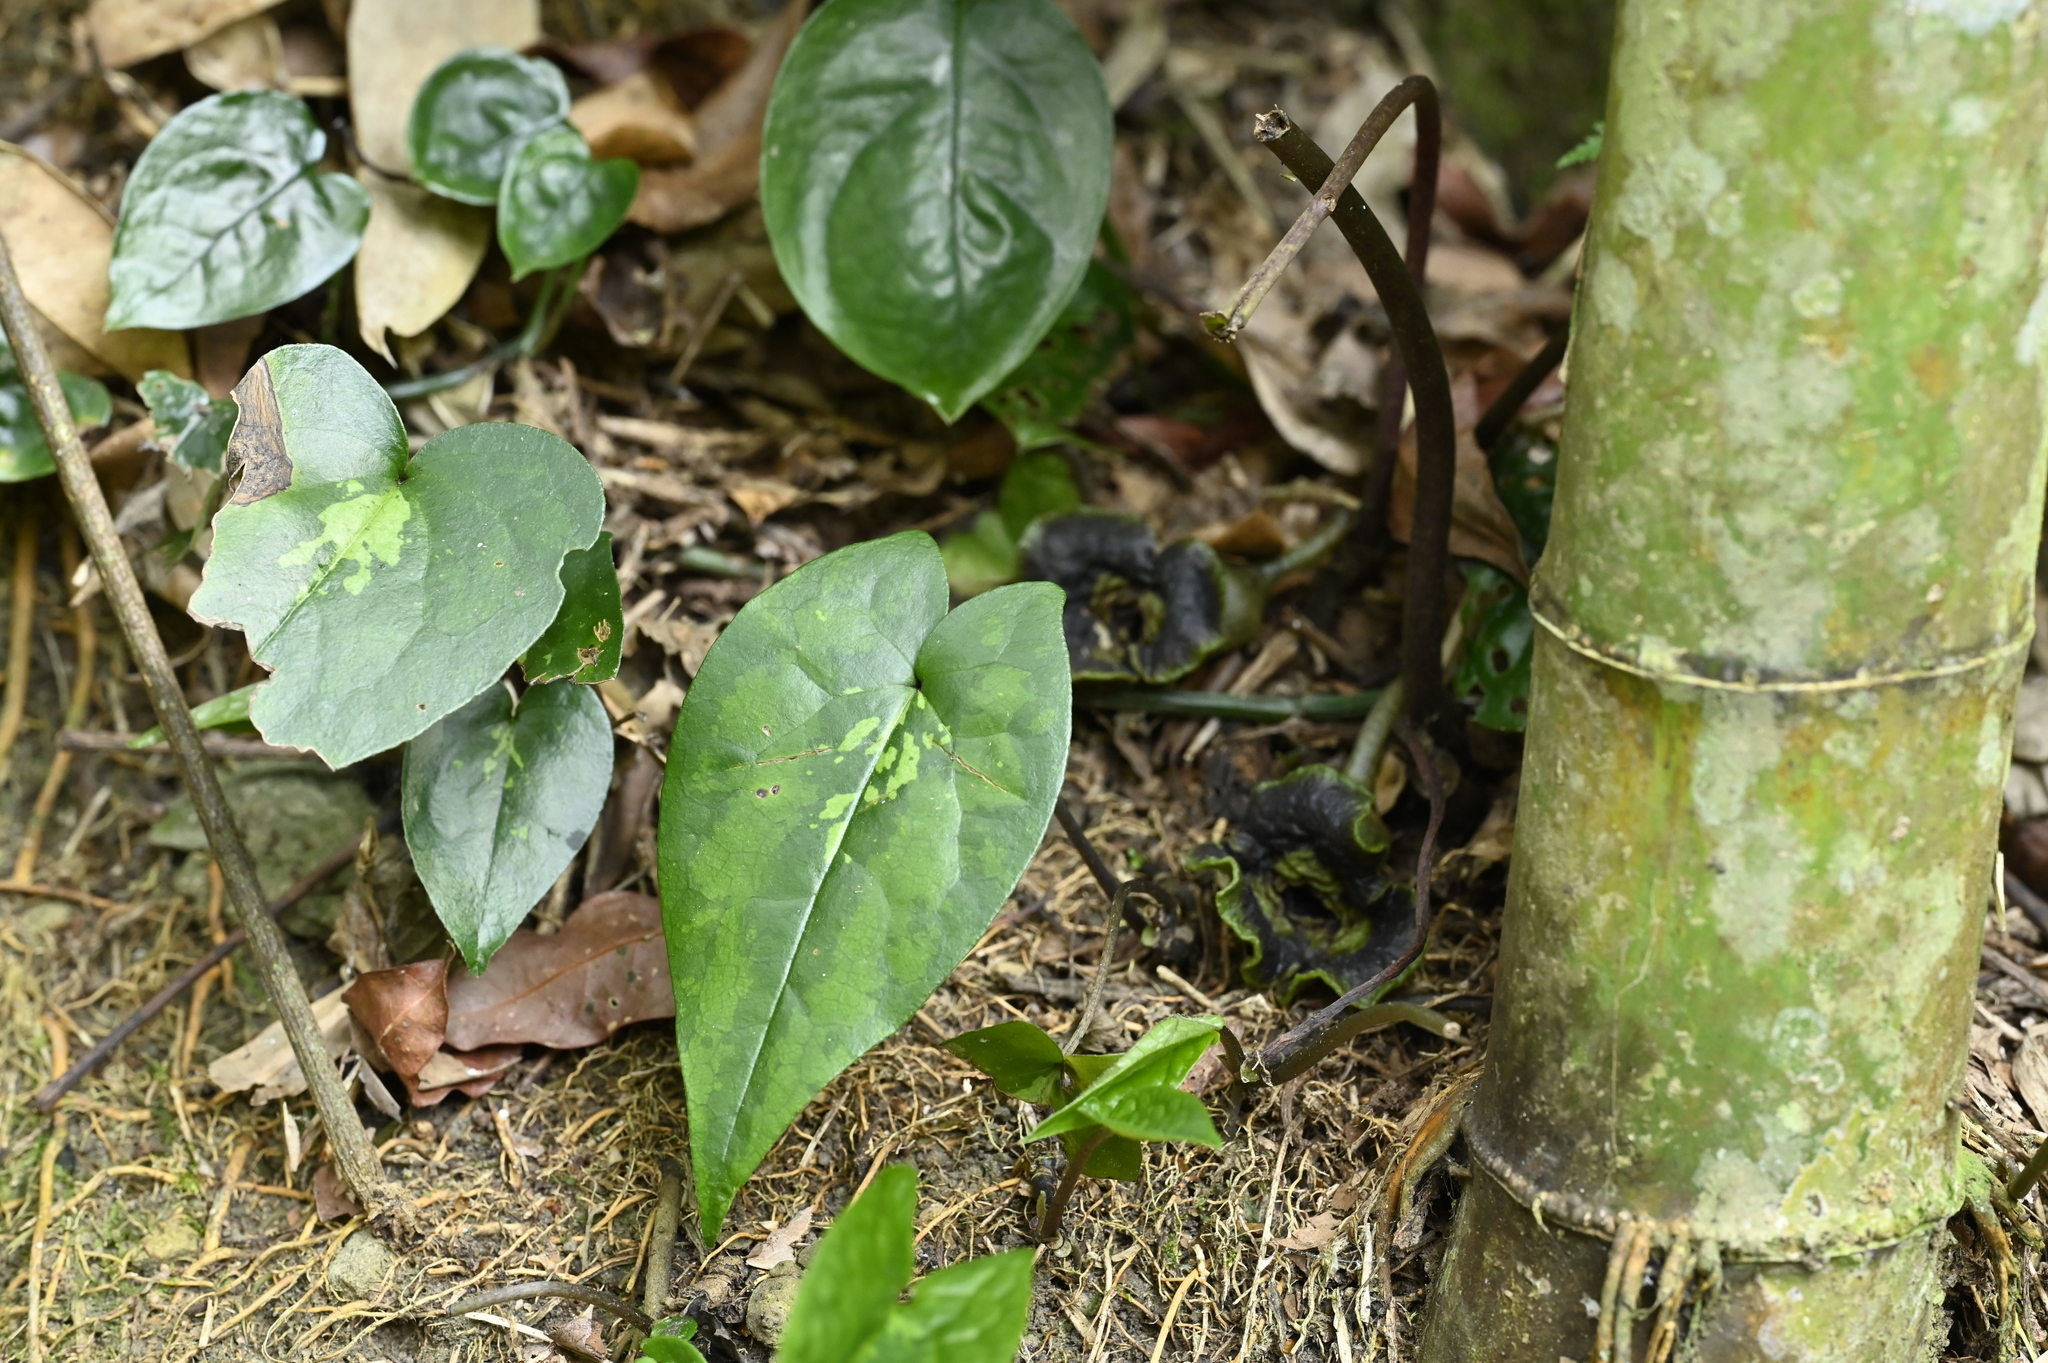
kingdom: Plantae
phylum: Tracheophyta
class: Magnoliopsida
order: Piperales
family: Aristolochiaceae
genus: Asarum
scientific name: Asarum hypogynum
